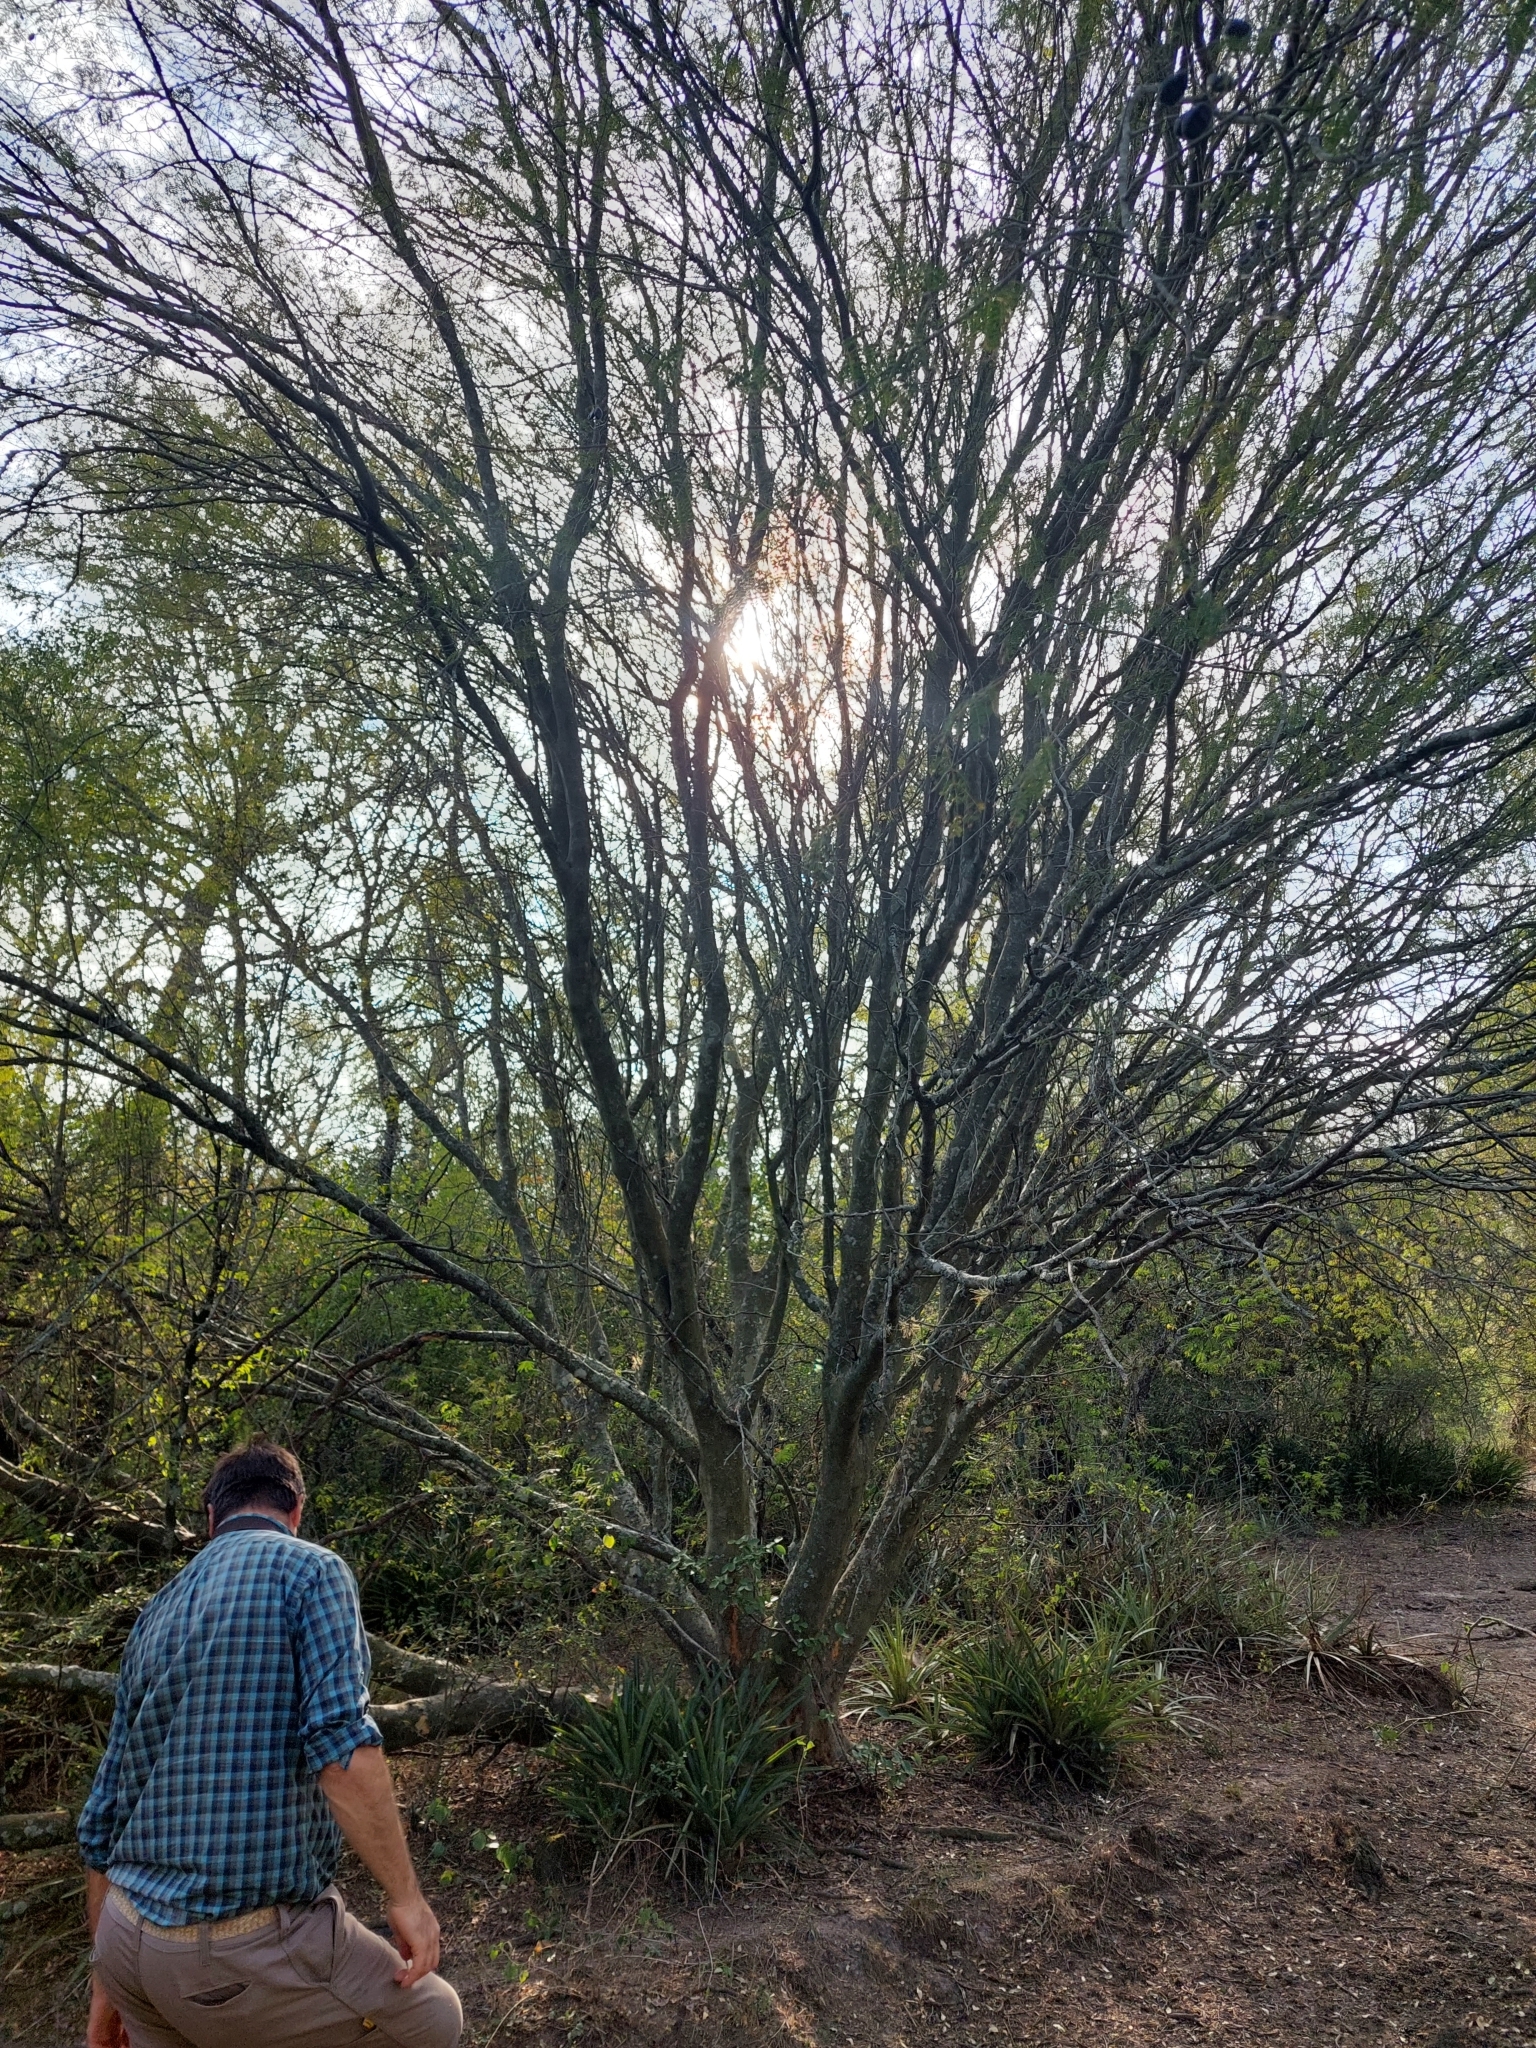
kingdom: Plantae
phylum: Tracheophyta
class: Magnoliopsida
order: Fabales
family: Fabaceae
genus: Libidibia
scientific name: Libidibia paraguariensis
